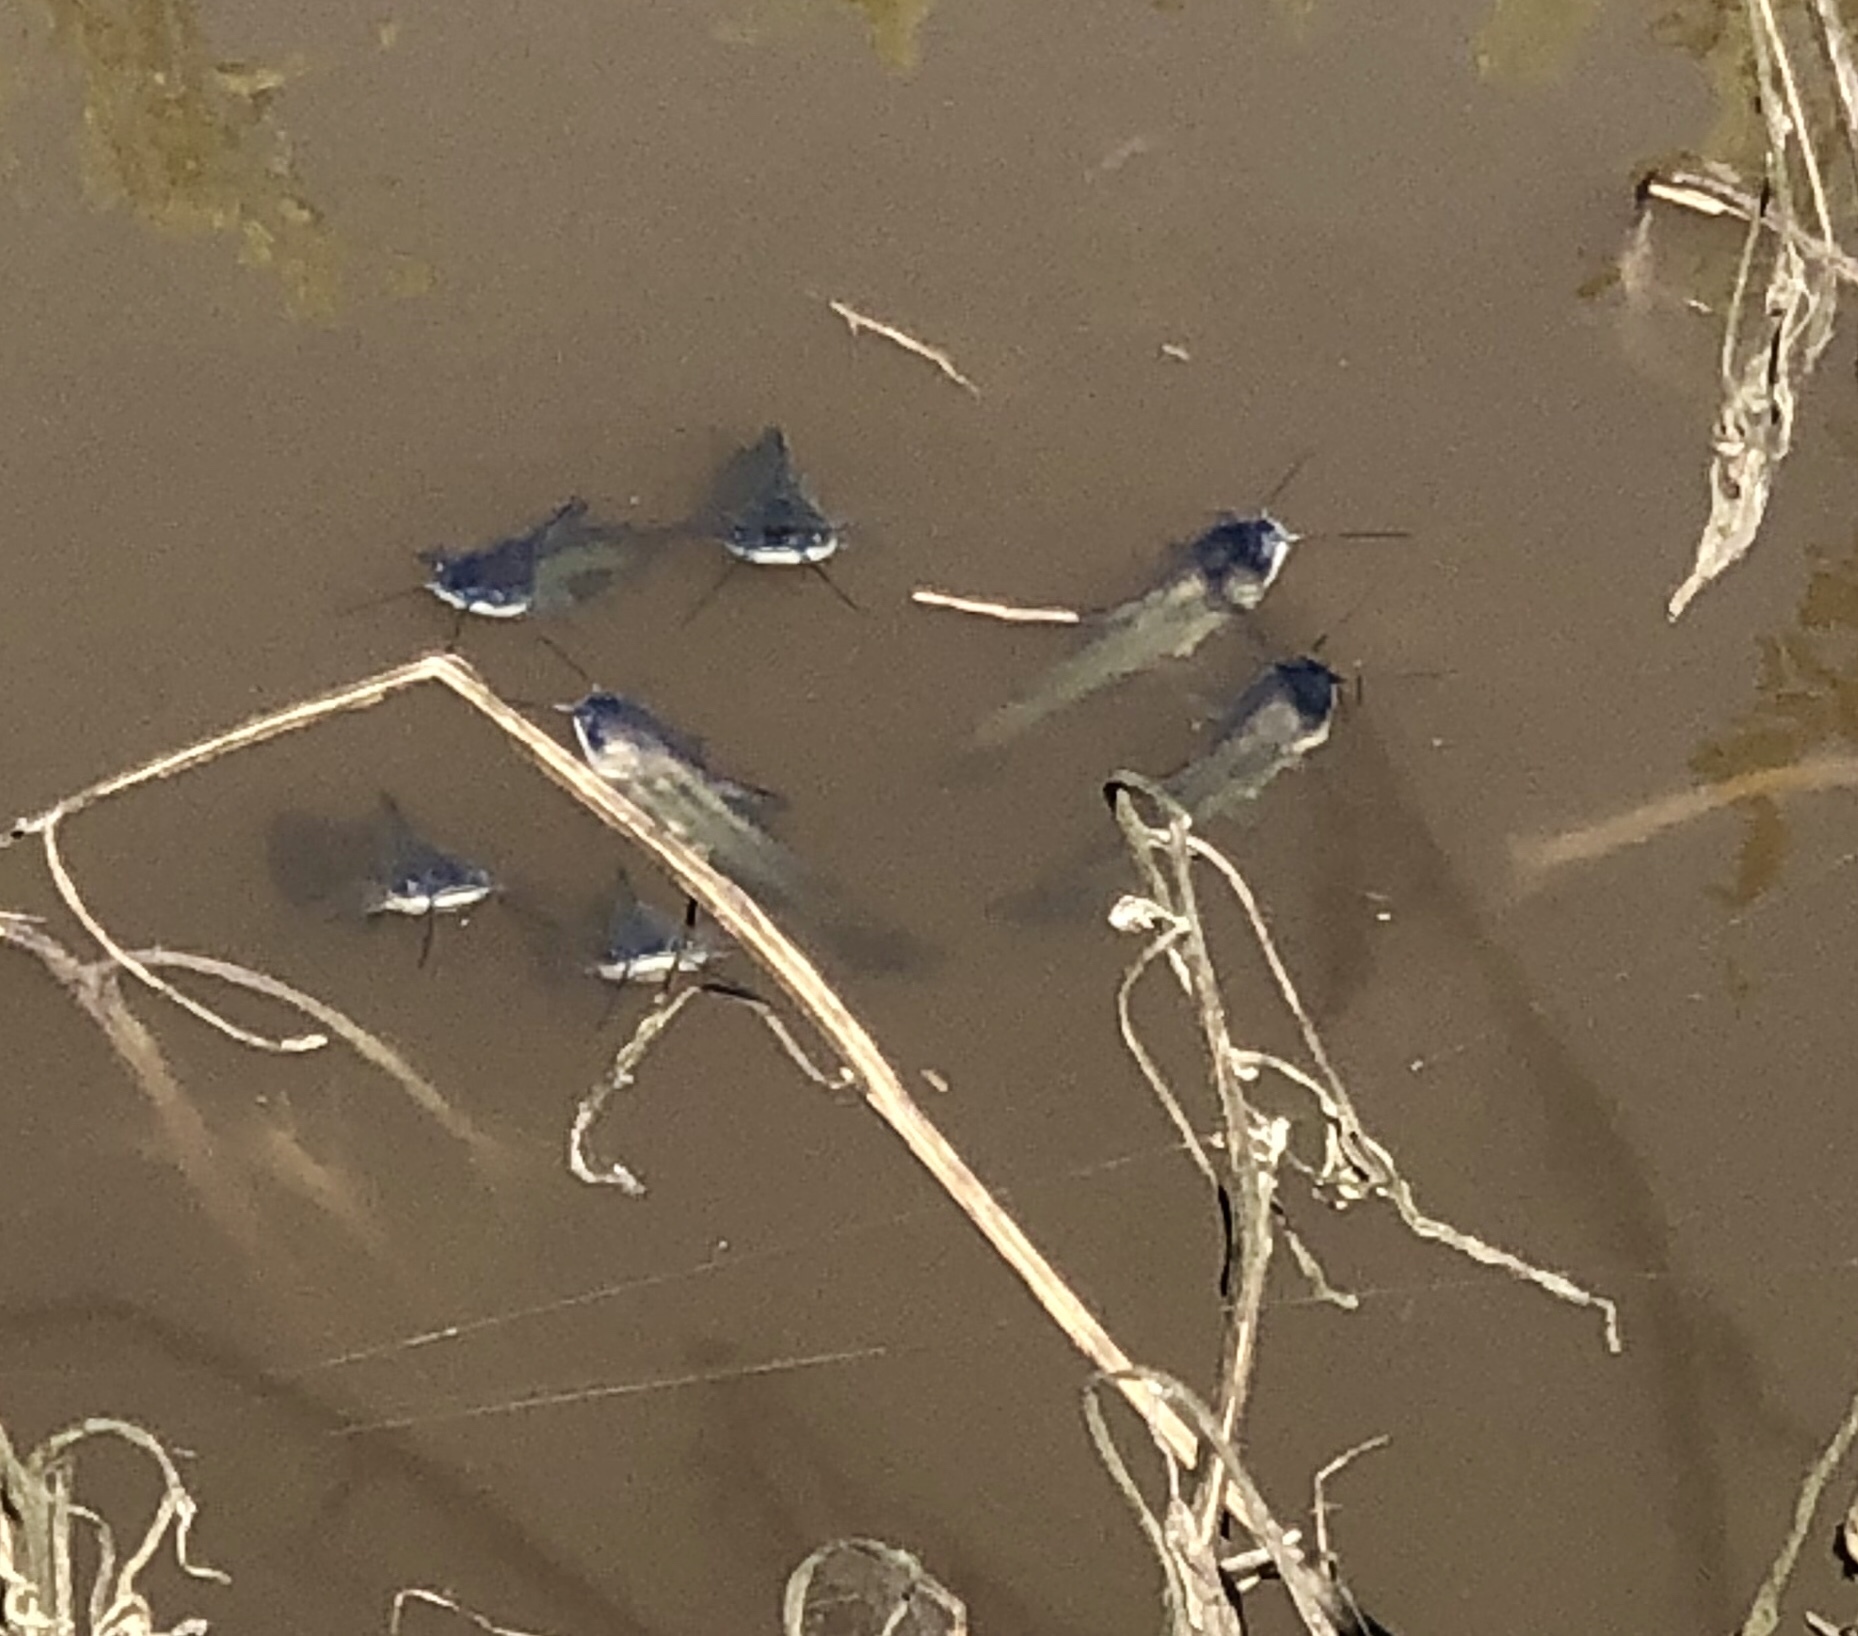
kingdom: Animalia
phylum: Chordata
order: Siluriformes
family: Ictaluridae
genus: Ameiurus
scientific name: Ameiurus melas
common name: Black bullhead
